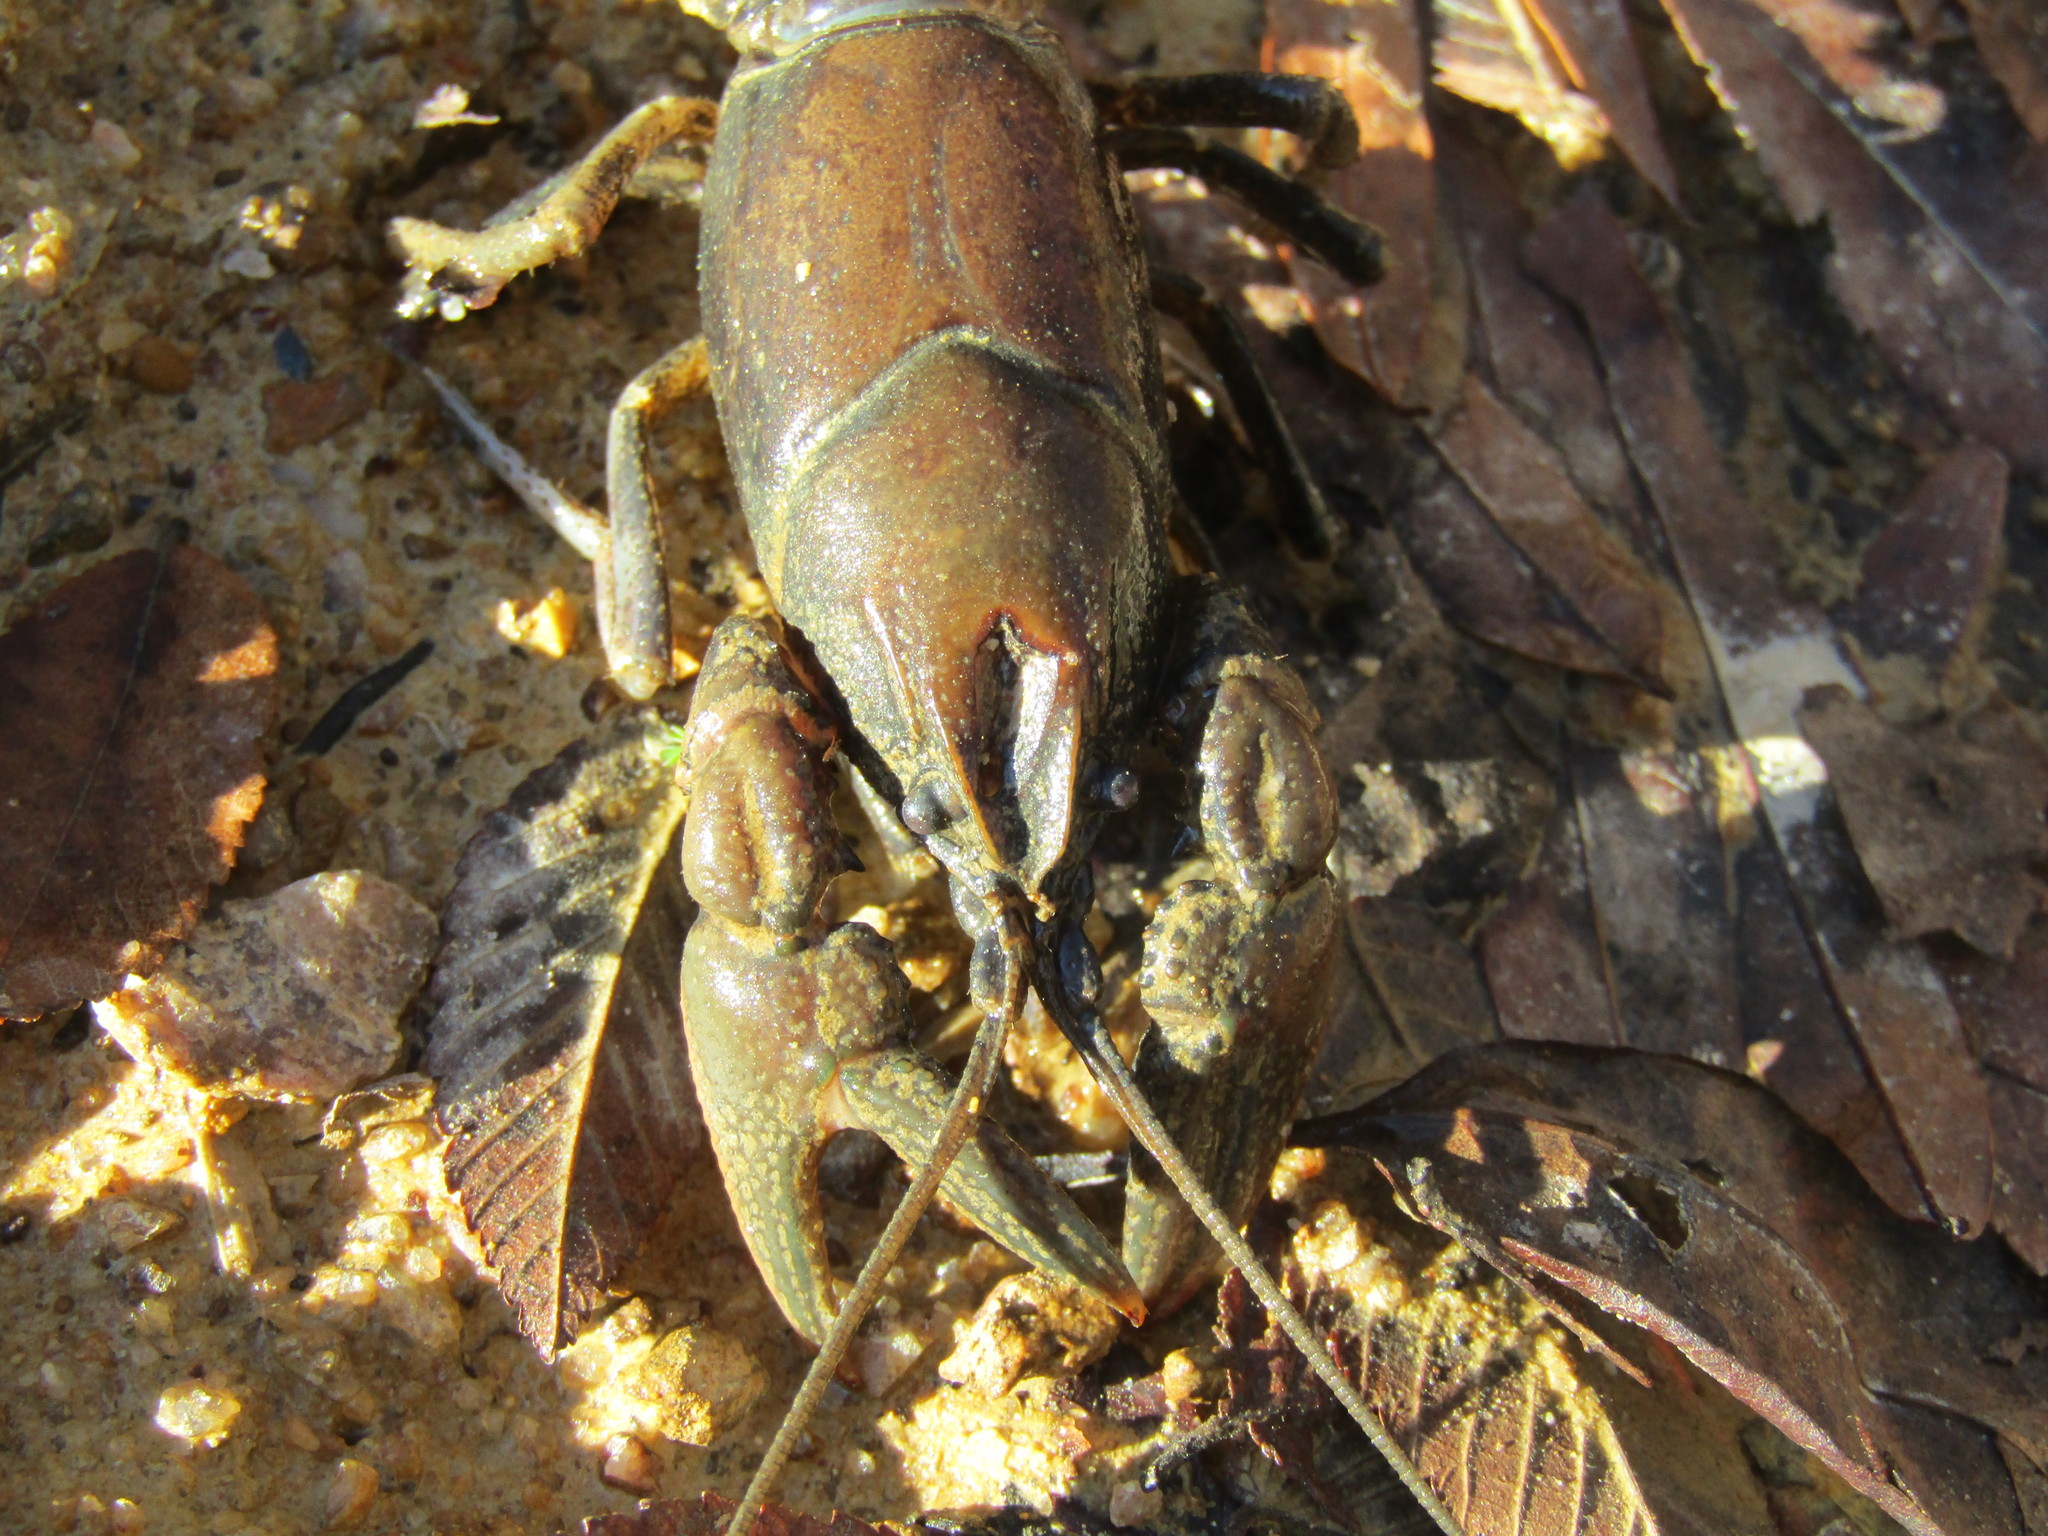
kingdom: Animalia
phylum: Arthropoda
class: Malacostraca
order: Decapoda
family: Cambaridae
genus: Cambarus
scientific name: Cambarus latimanus
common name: Variable crayfish
